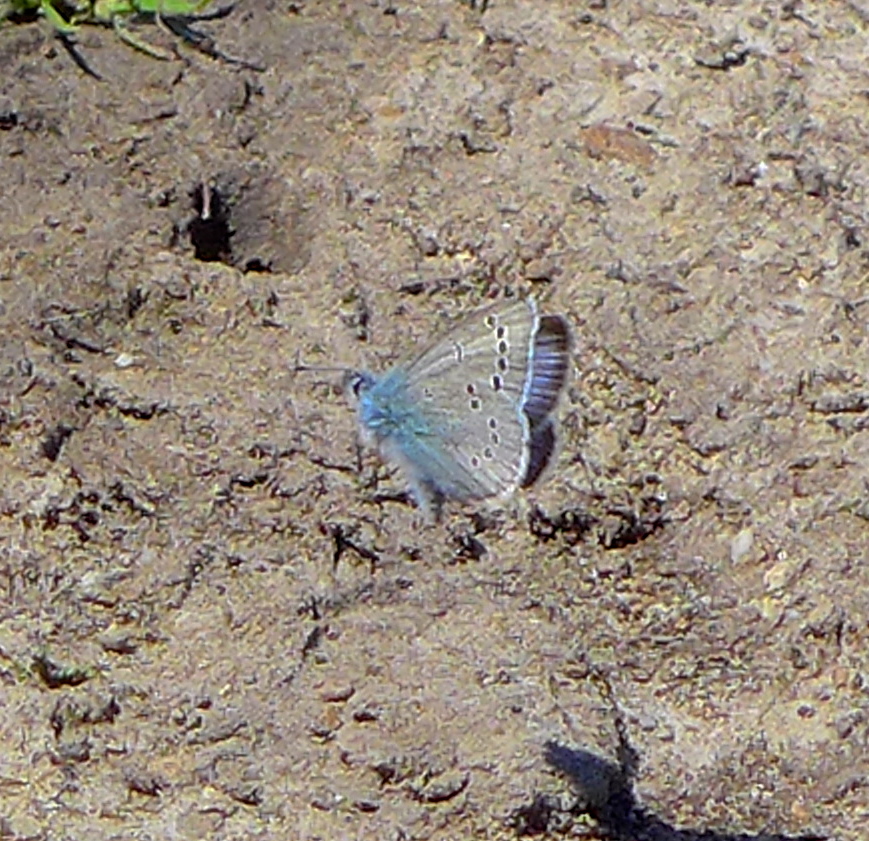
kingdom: Animalia
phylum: Arthropoda
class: Insecta
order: Lepidoptera
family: Lycaenidae
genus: Glaucopsyche
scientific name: Glaucopsyche lygdamus
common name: Silvery blue
